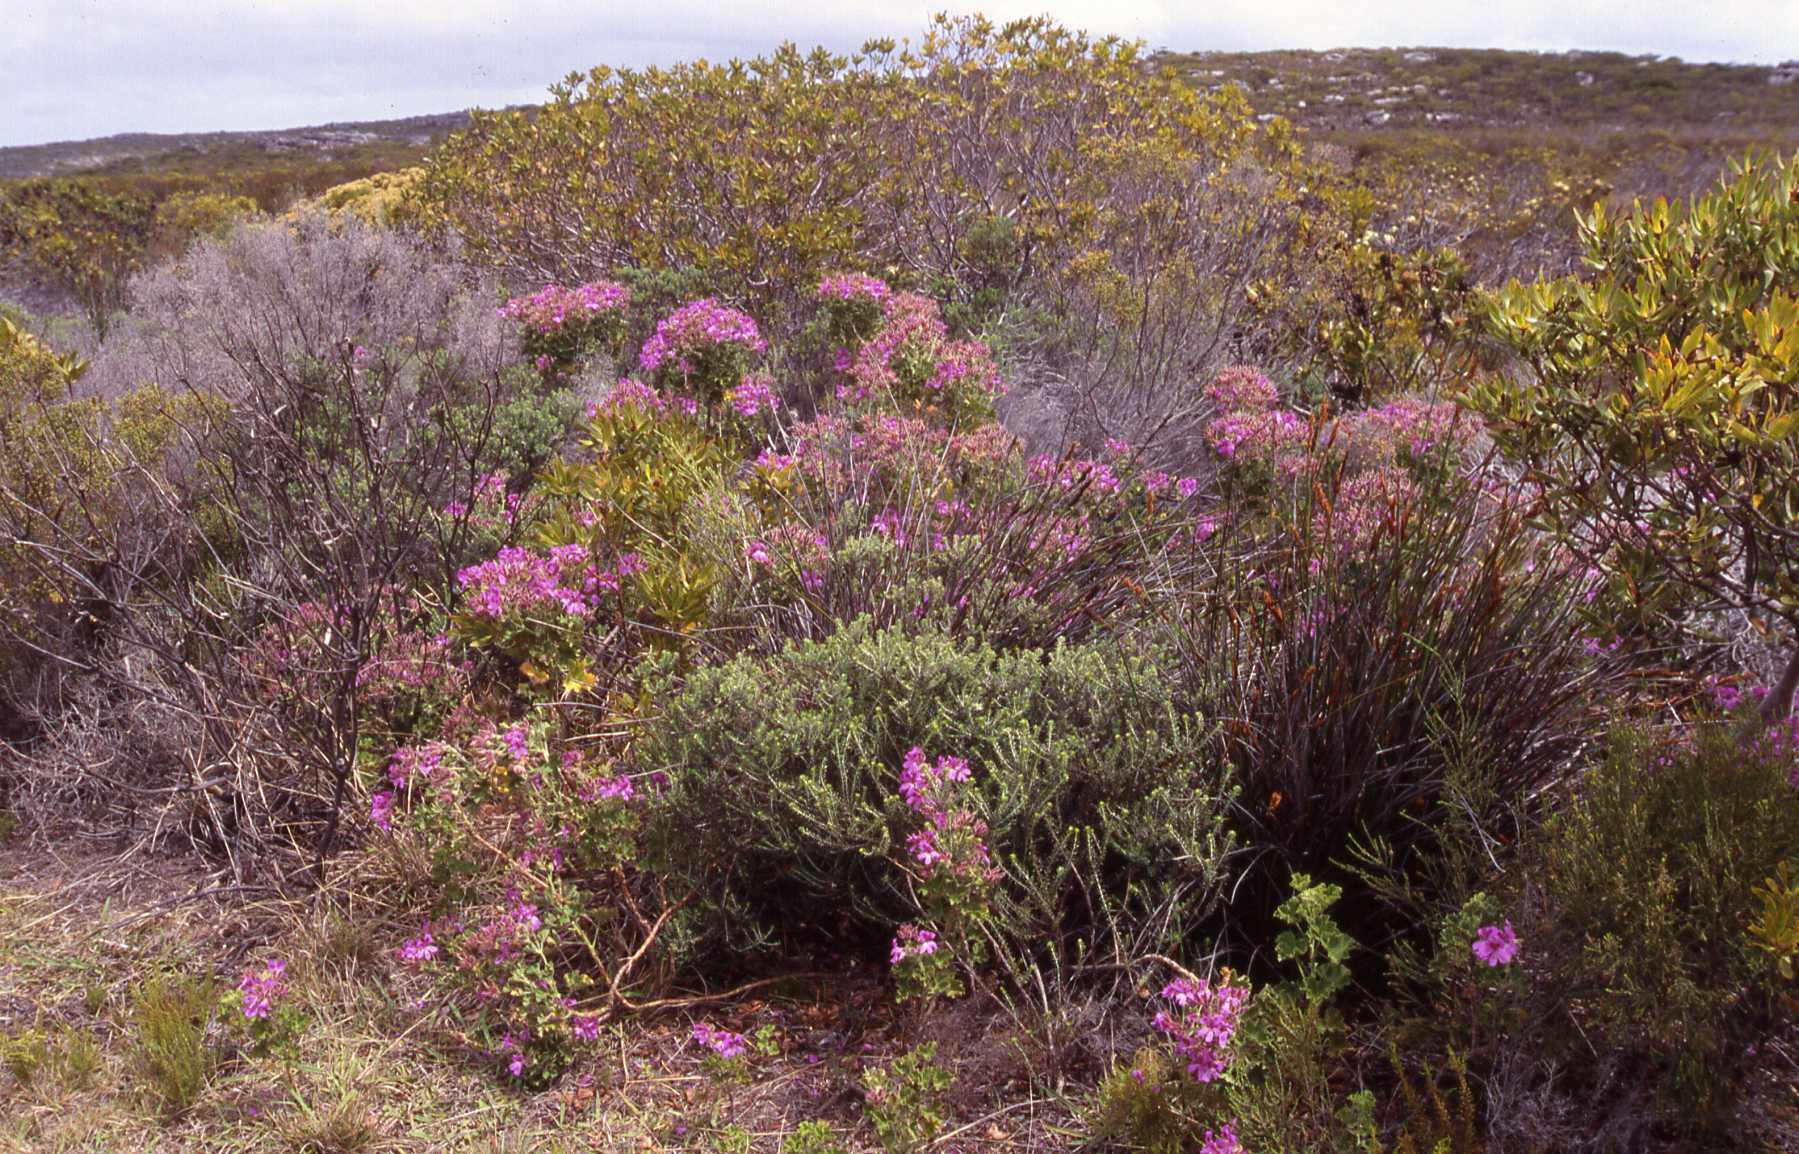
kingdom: Plantae
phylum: Tracheophyta
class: Magnoliopsida
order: Geraniales
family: Geraniaceae
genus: Pelargonium
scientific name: Pelargonium cucullatum
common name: Tree pelargonium
